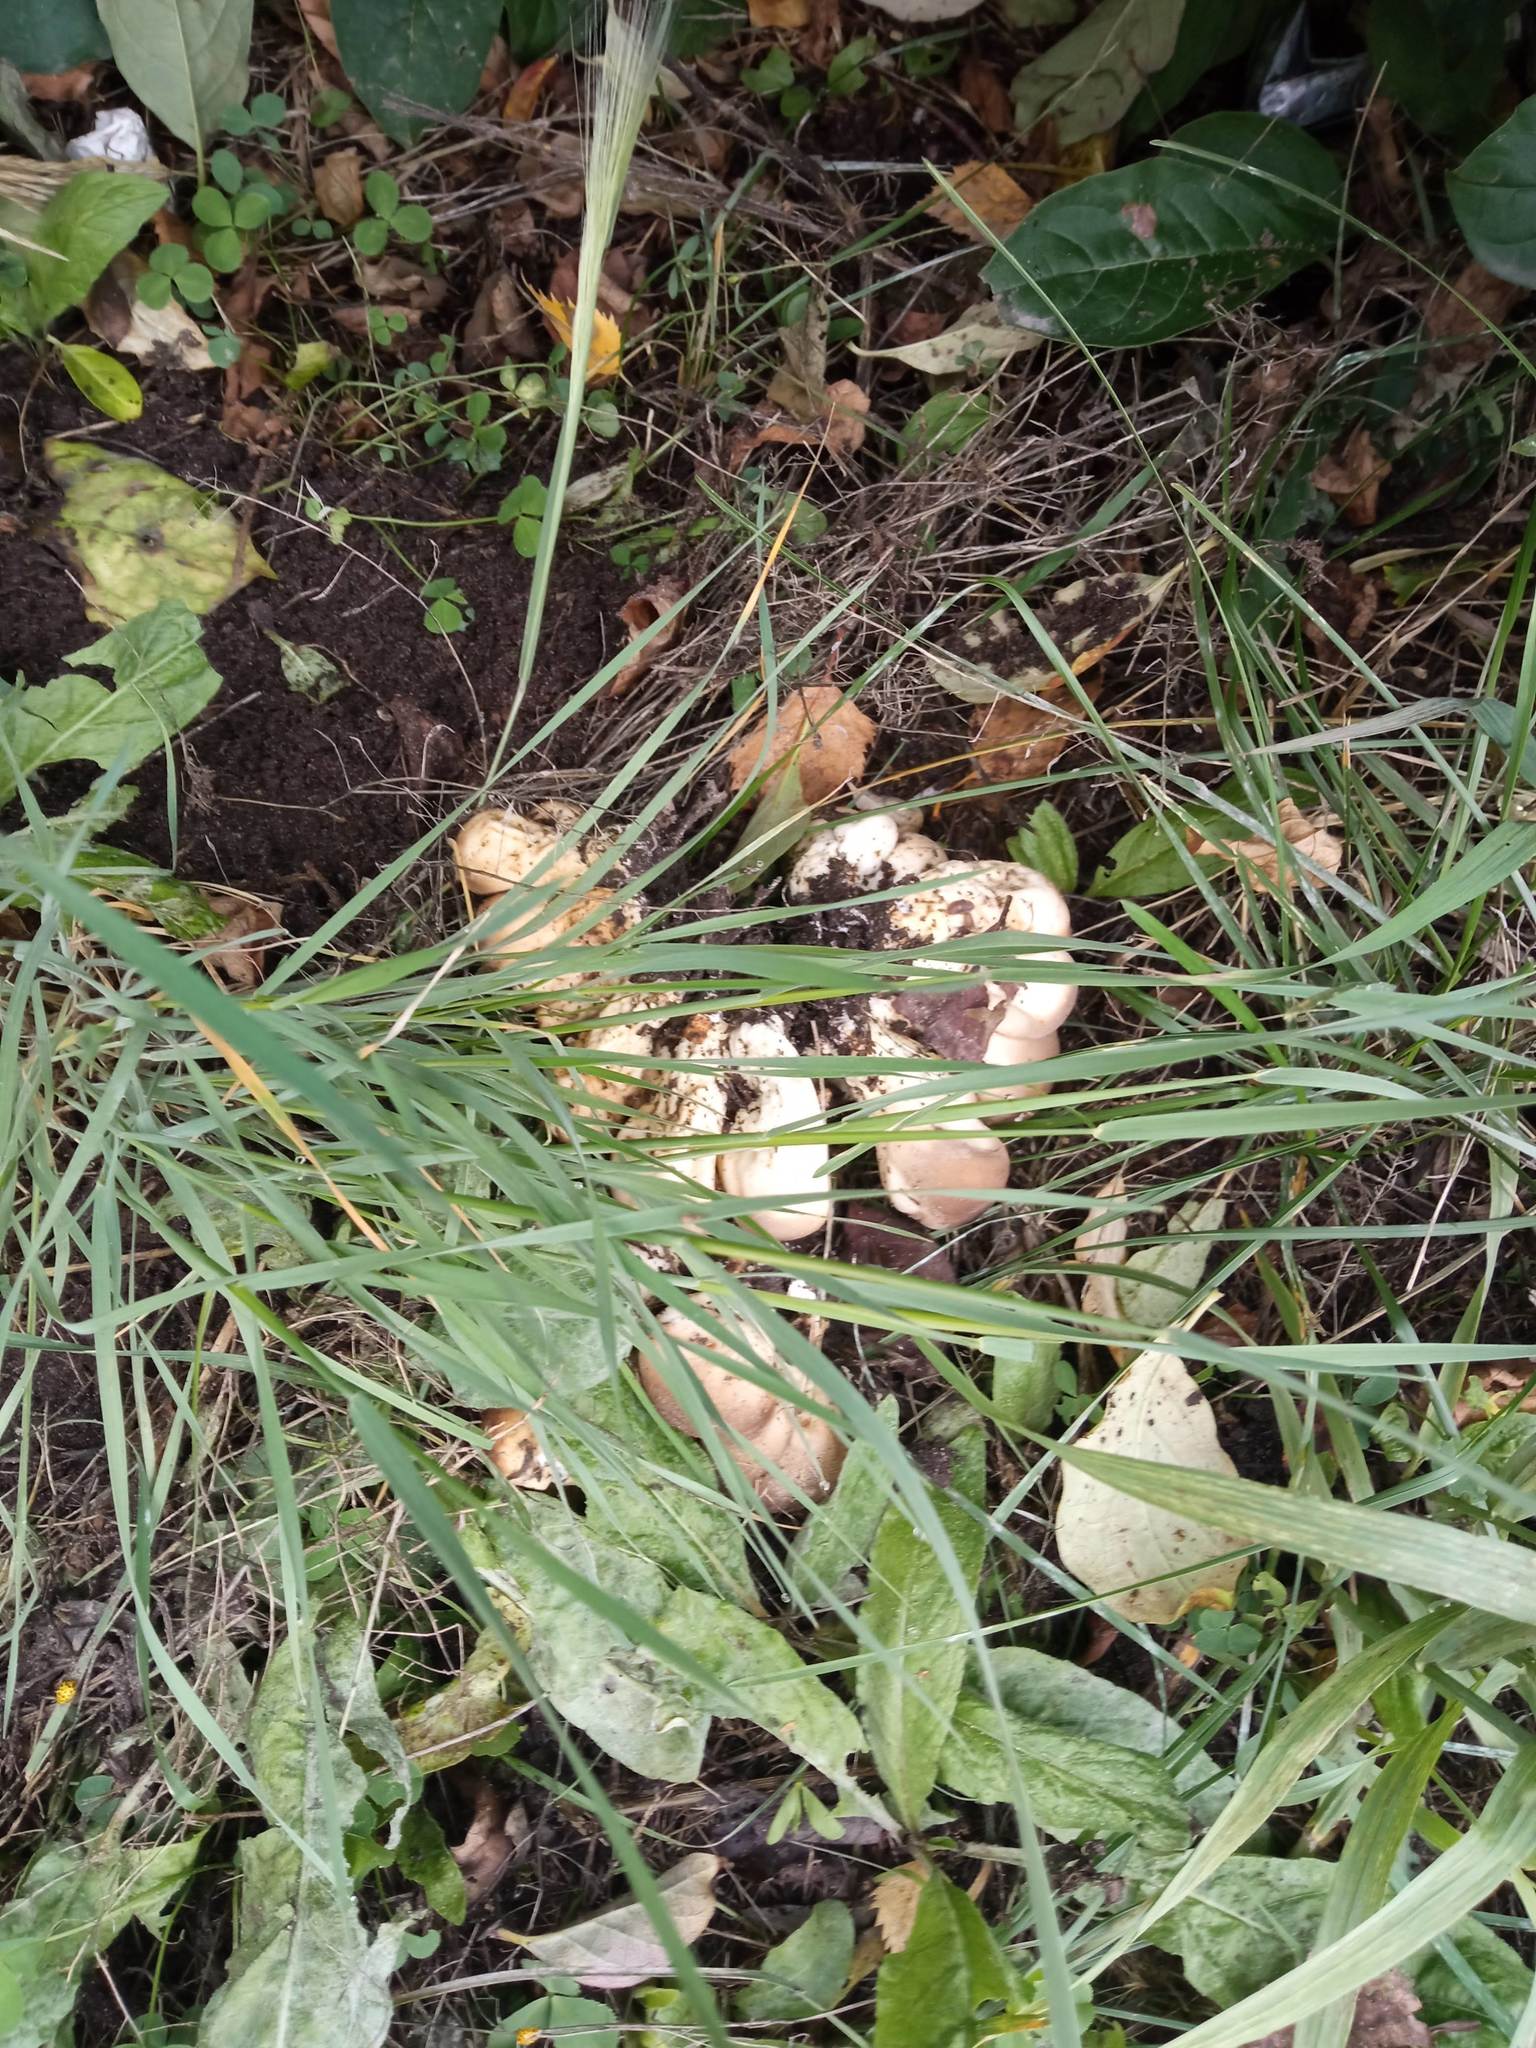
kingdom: Fungi
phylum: Basidiomycota
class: Agaricomycetes
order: Agaricales
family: Lycoperdaceae
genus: Apioperdon
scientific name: Apioperdon pyriforme
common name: Pear-shaped puffball
